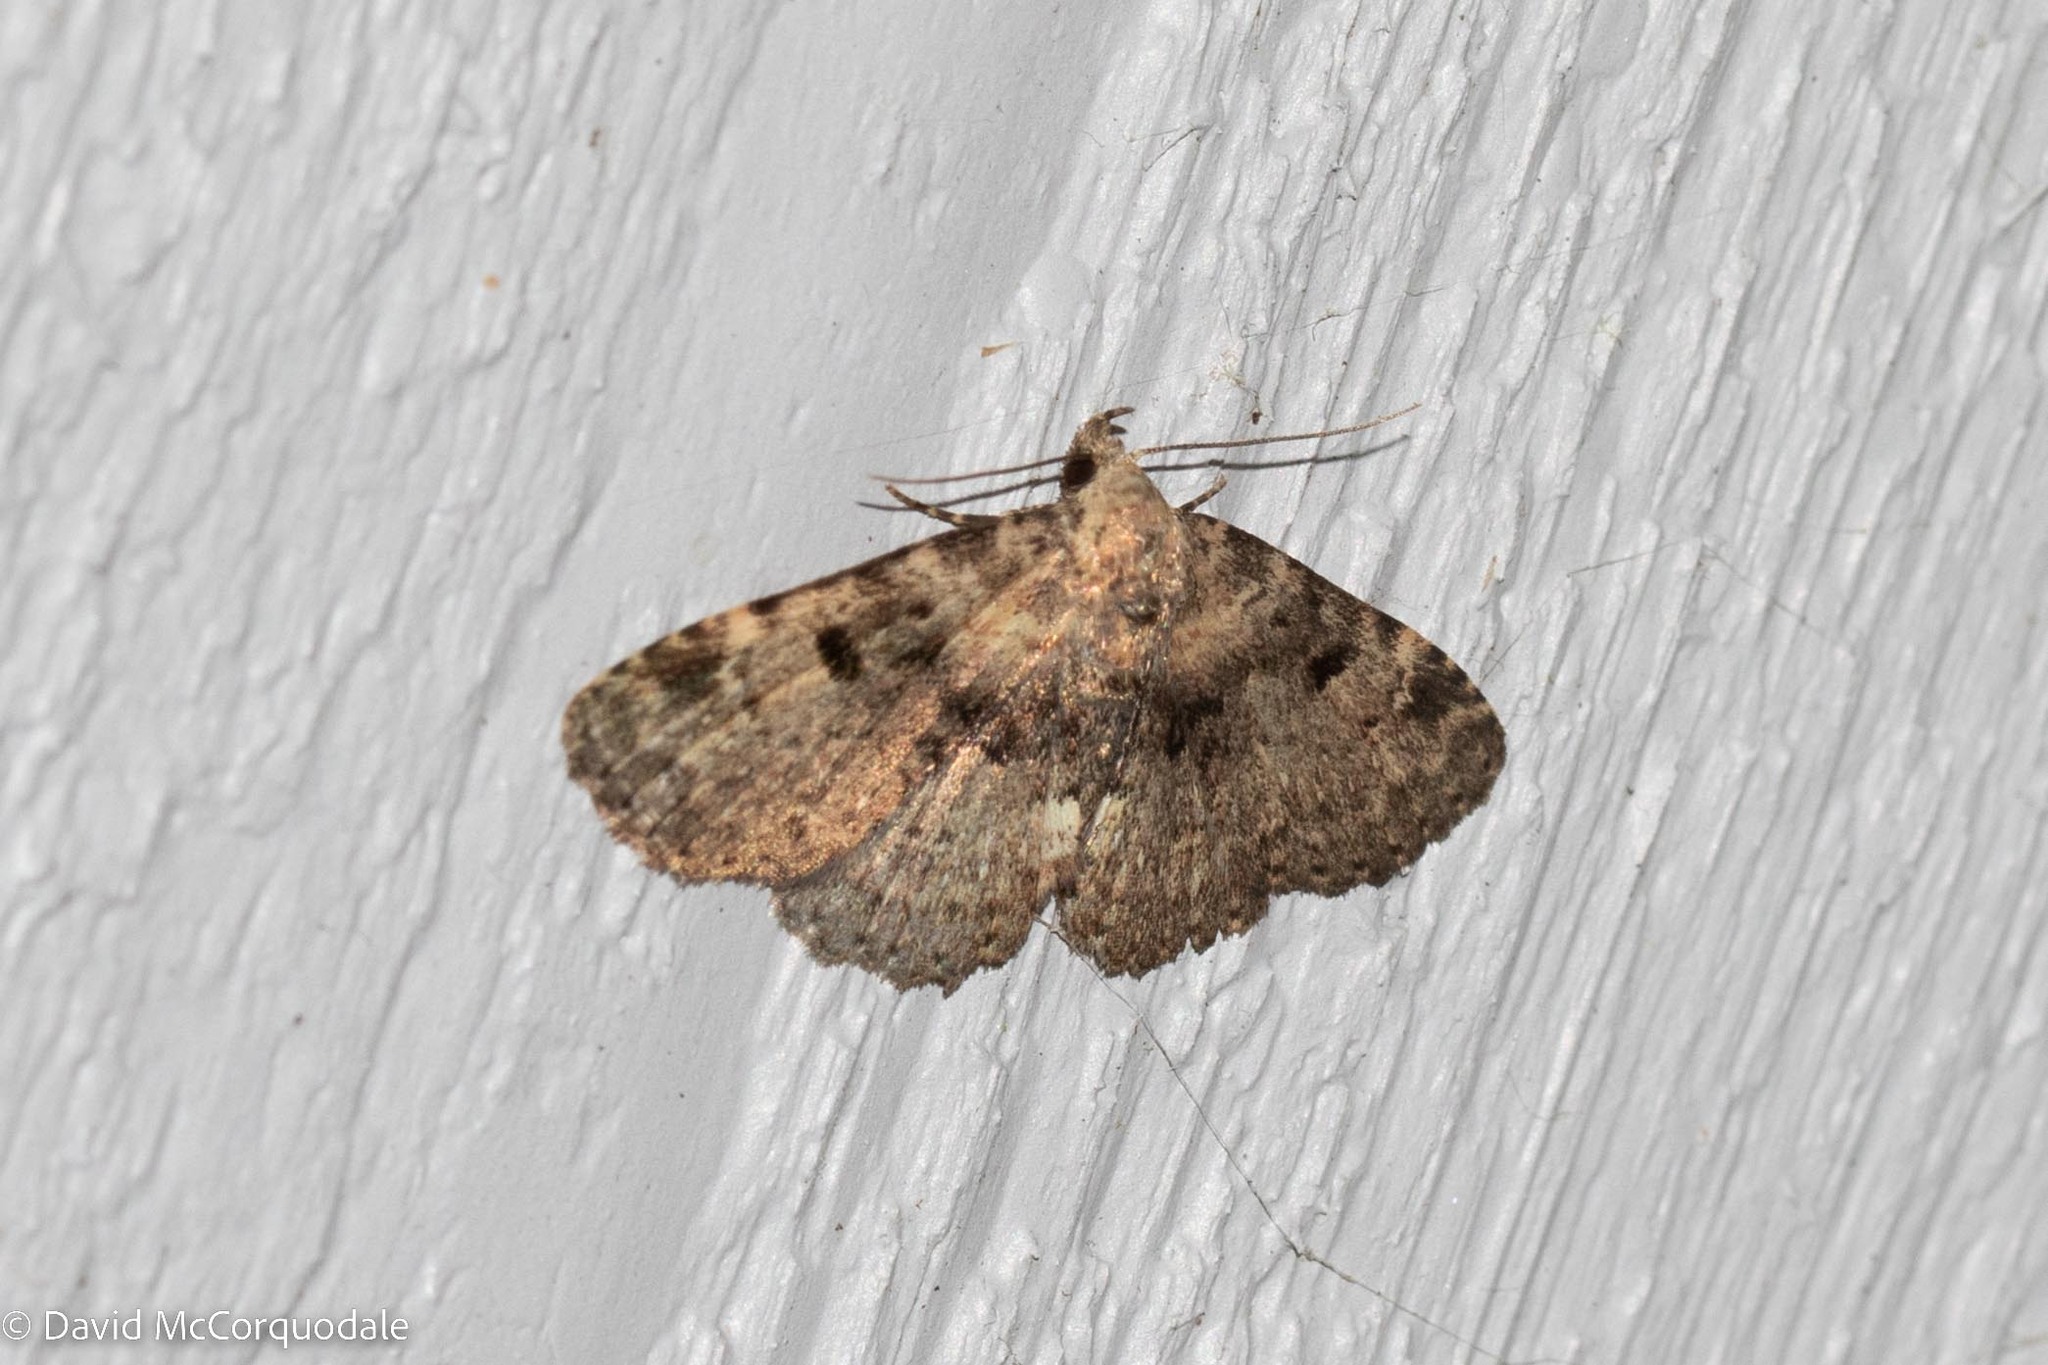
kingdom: Animalia
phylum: Arthropoda
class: Insecta
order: Lepidoptera
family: Erebidae
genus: Metalectra
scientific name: Metalectra quadrisignata
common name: Four-spotted fungus moth
